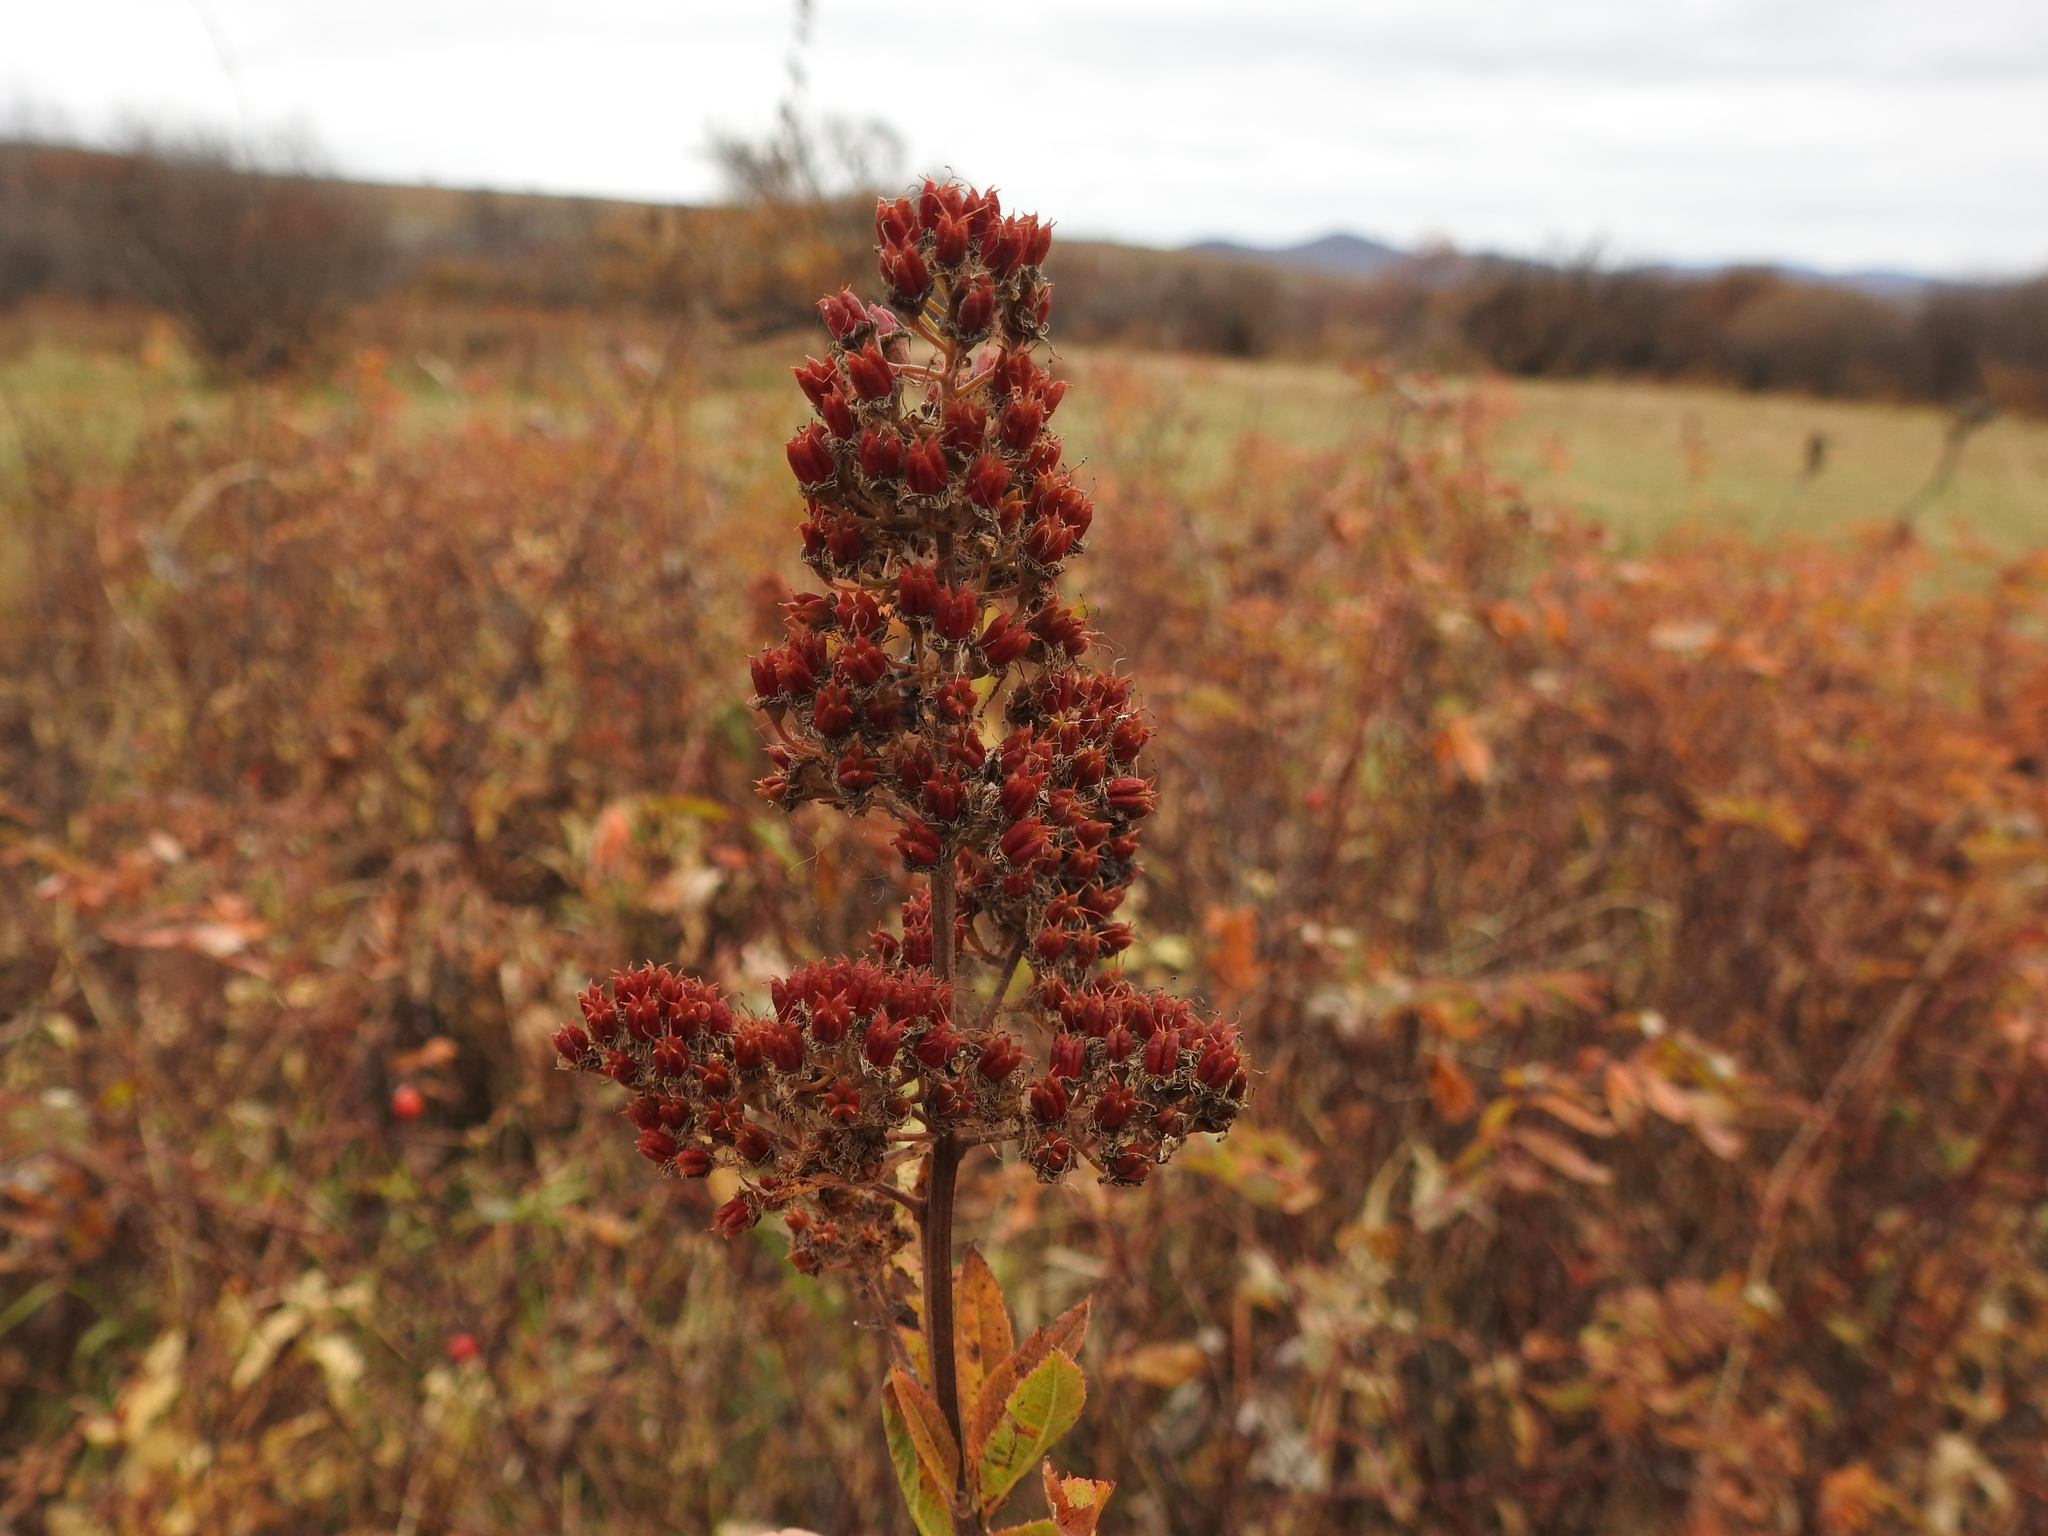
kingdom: Plantae
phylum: Tracheophyta
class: Magnoliopsida
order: Rosales
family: Rosaceae
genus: Spiraea
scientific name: Spiraea salicifolia
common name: Bridewort
